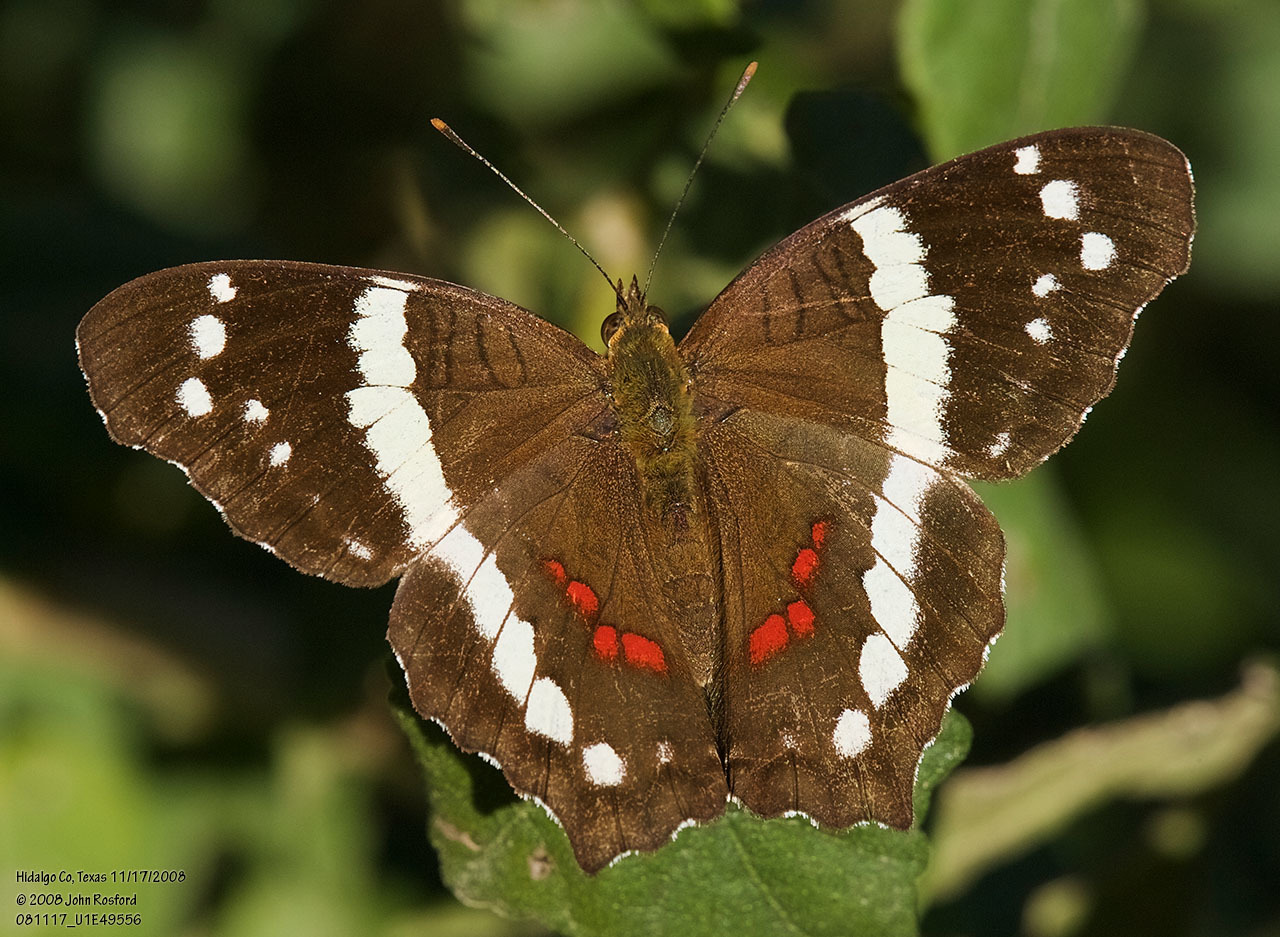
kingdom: Animalia
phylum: Arthropoda
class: Insecta
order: Lepidoptera
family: Nymphalidae
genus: Anartia
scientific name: Anartia fatima
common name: Banded peacock
